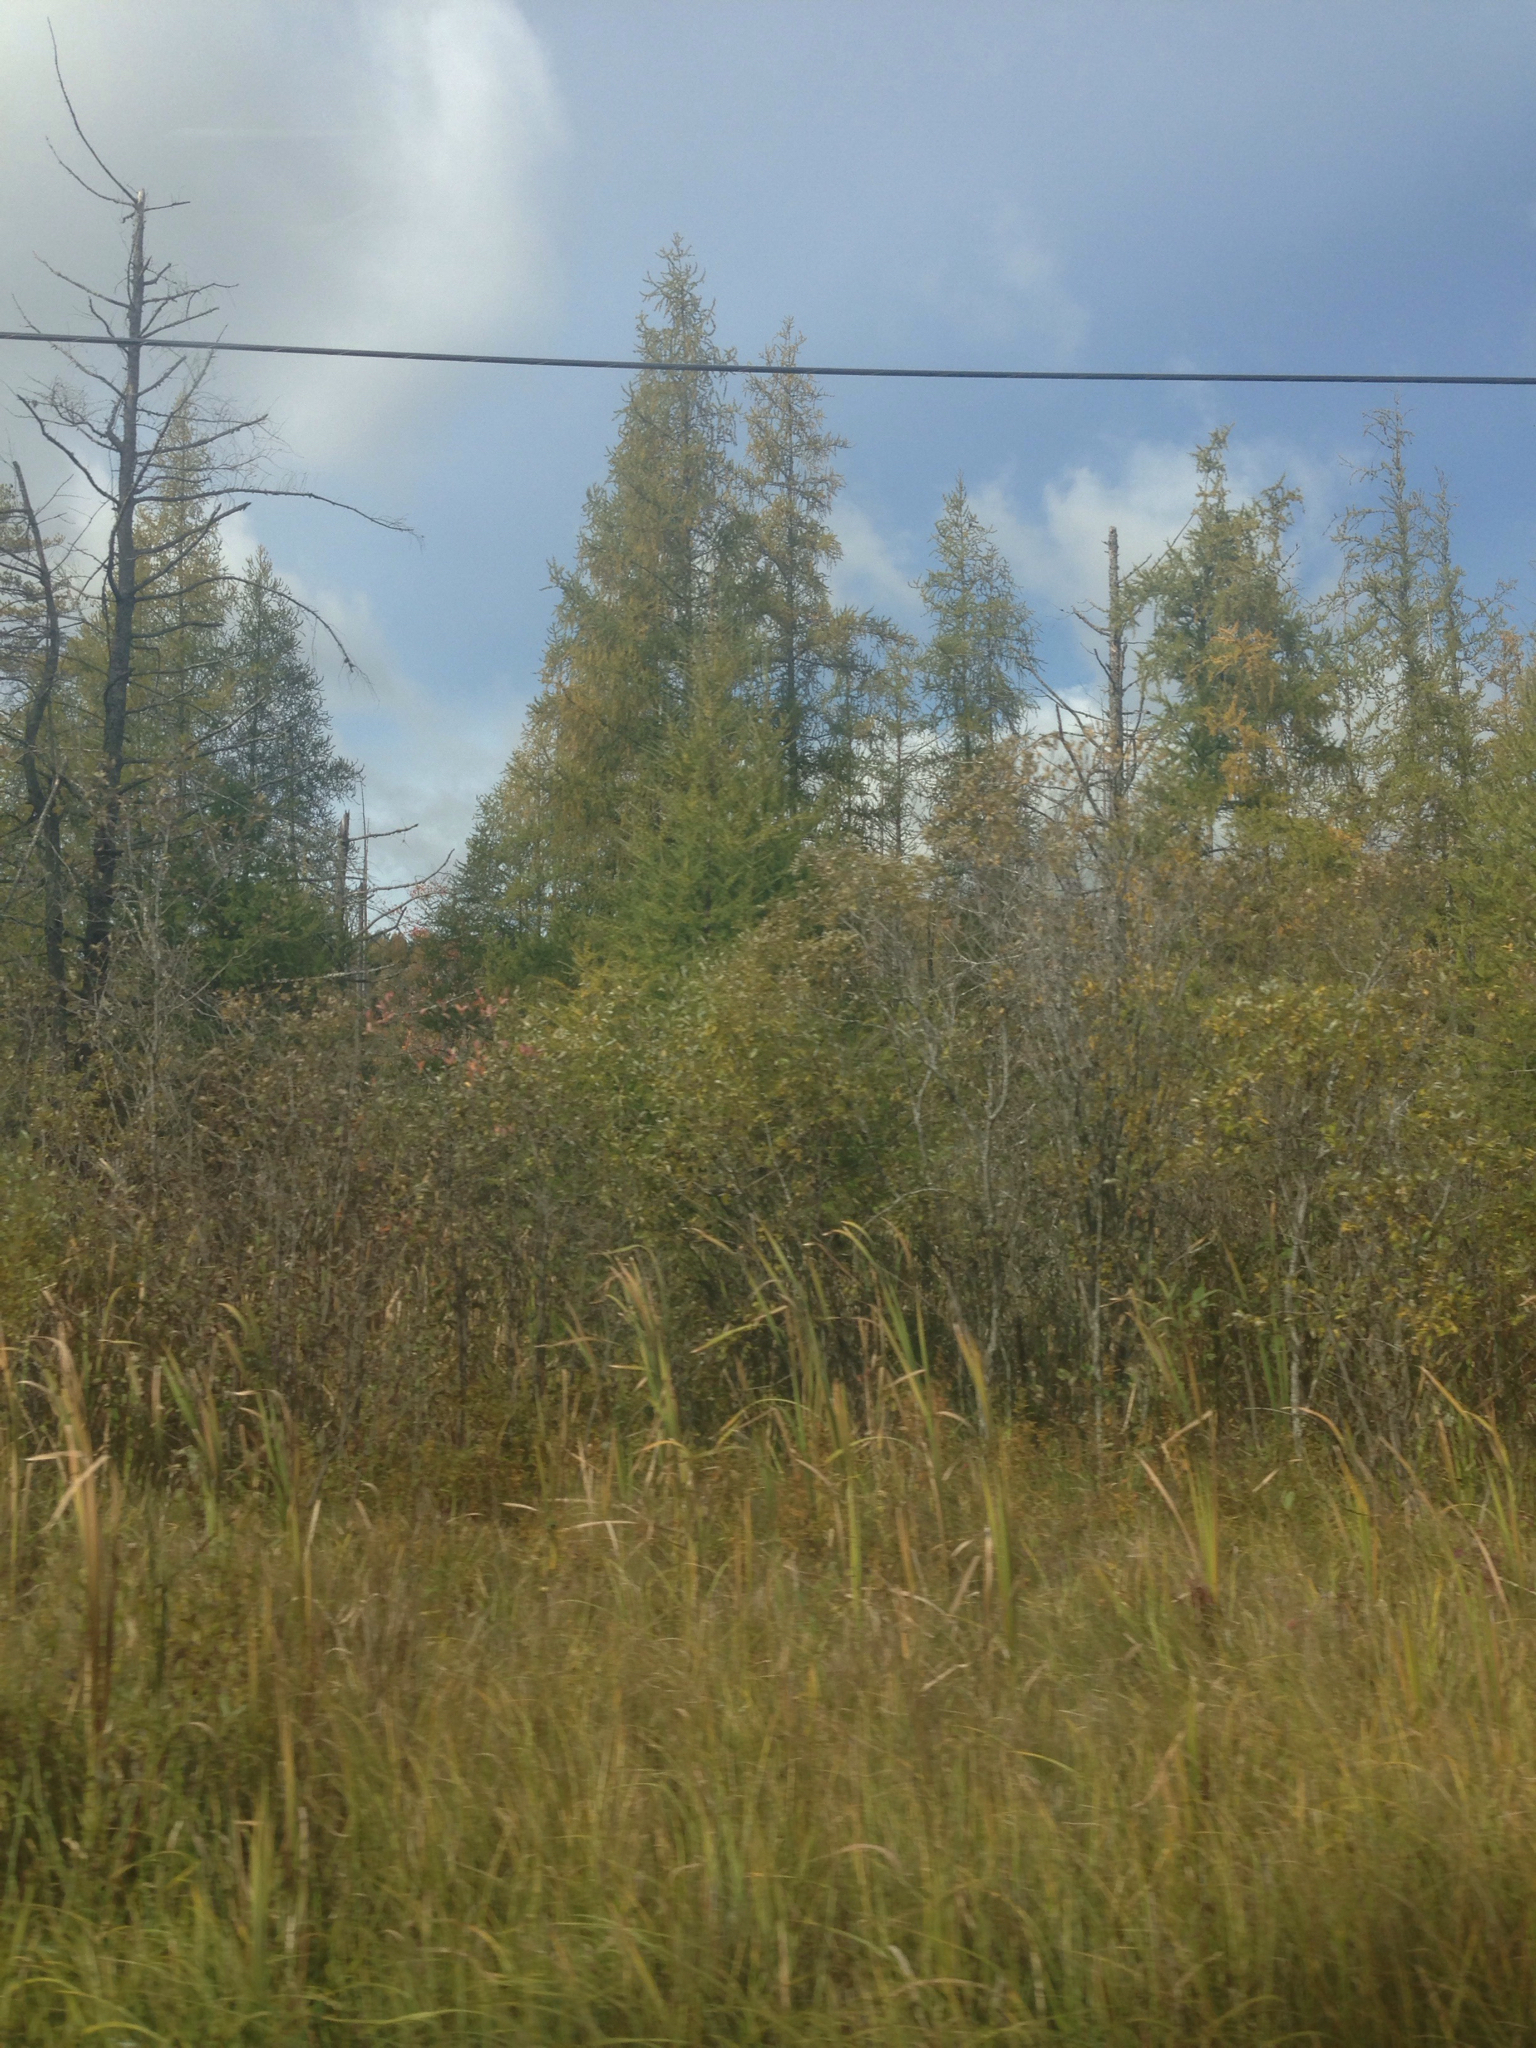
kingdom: Plantae
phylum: Tracheophyta
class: Pinopsida
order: Pinales
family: Pinaceae
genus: Larix
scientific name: Larix laricina
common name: American larch
